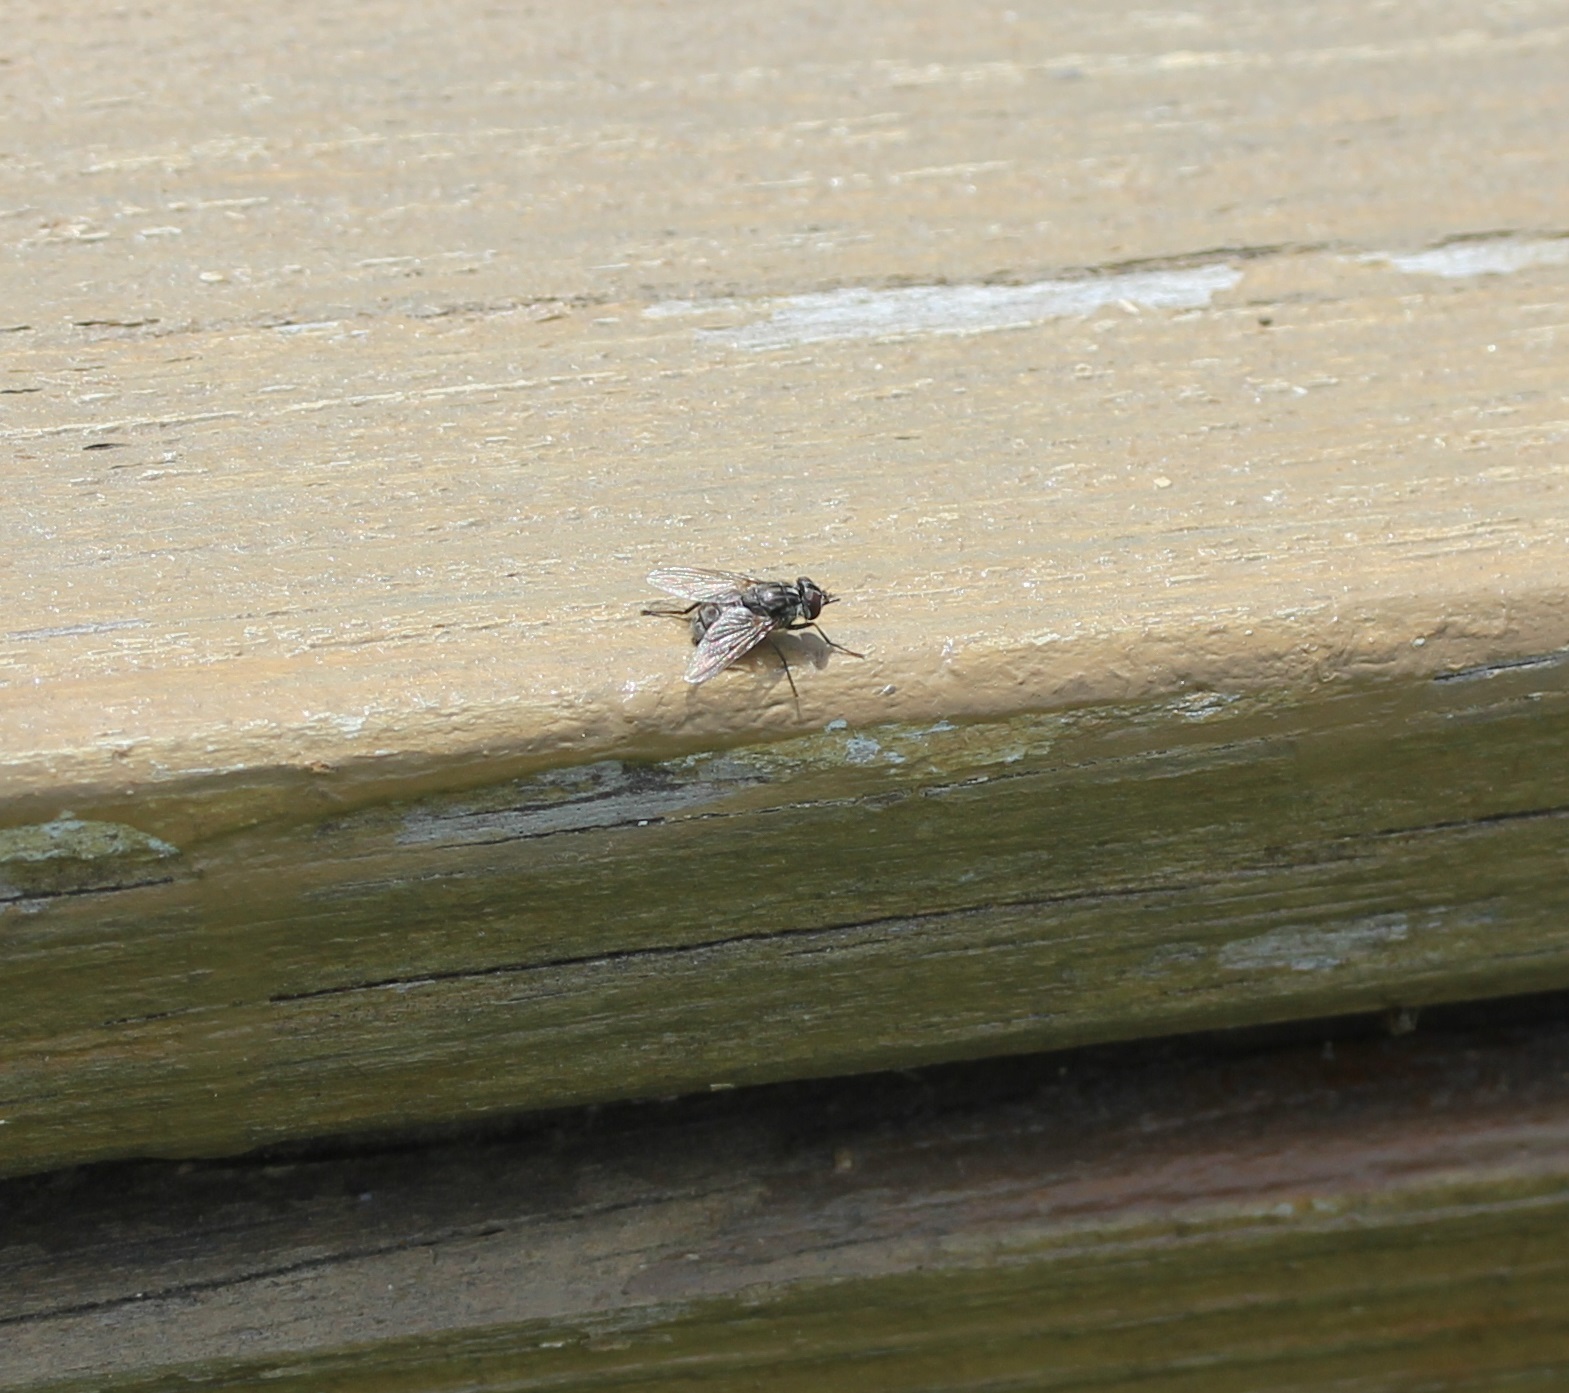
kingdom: Animalia
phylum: Arthropoda
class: Insecta
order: Diptera
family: Muscidae
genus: Stomoxys
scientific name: Stomoxys calcitrans
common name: Stable fly
